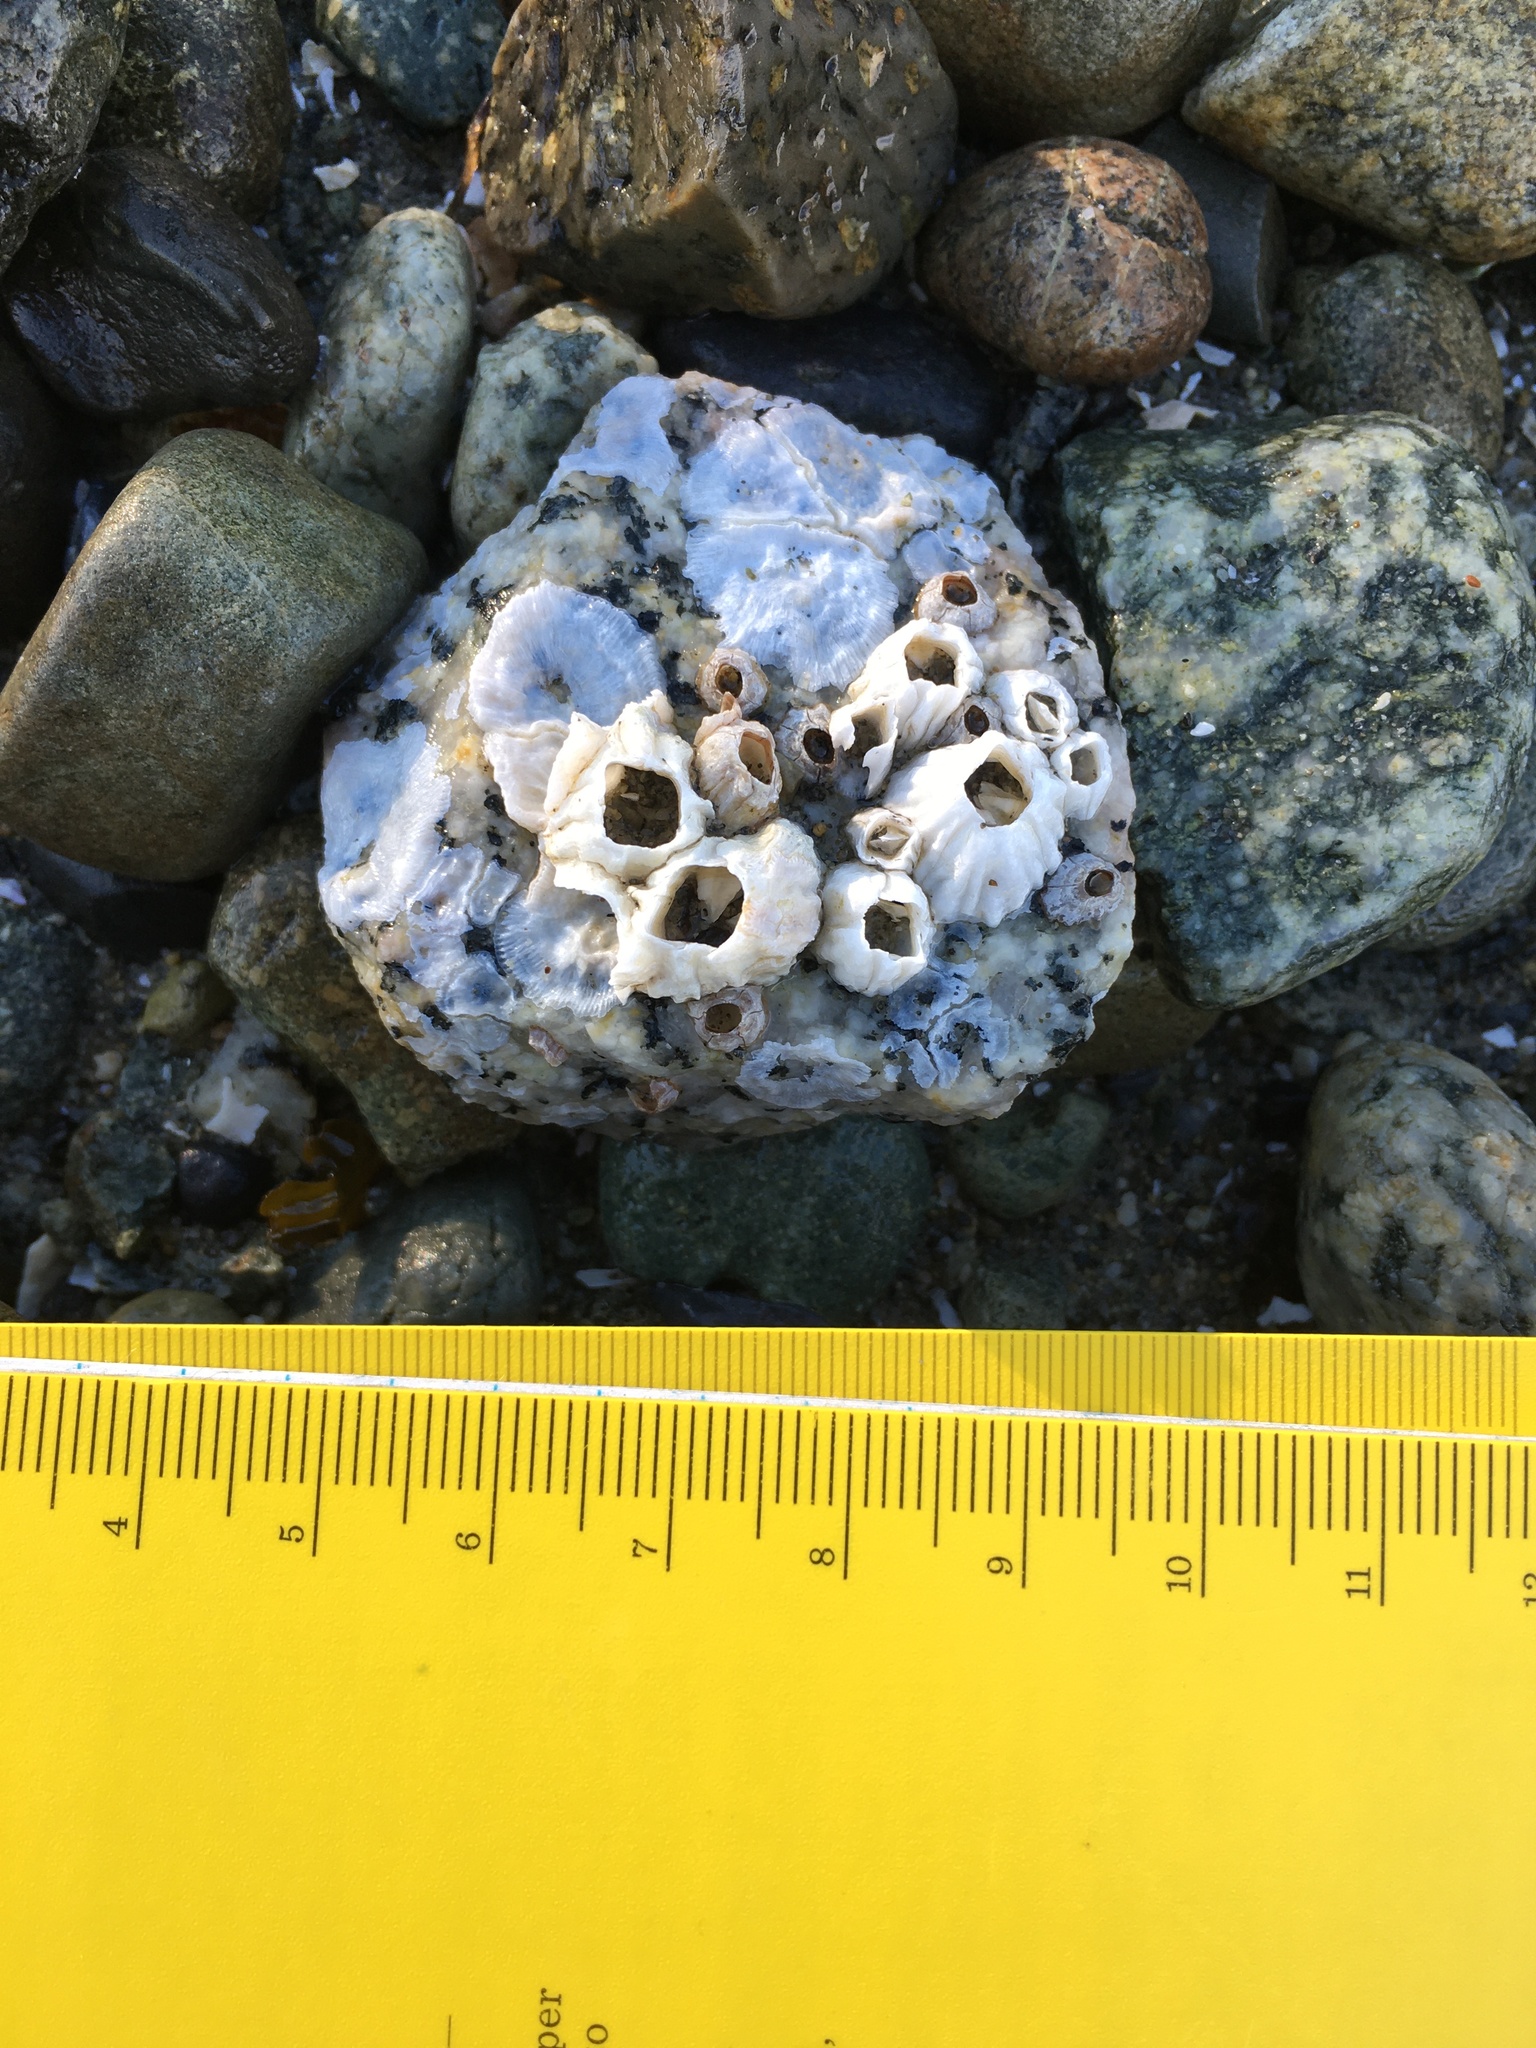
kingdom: Animalia
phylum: Arthropoda
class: Maxillopoda
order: Sessilia
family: Balanidae
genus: Balanus
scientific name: Balanus glandula
